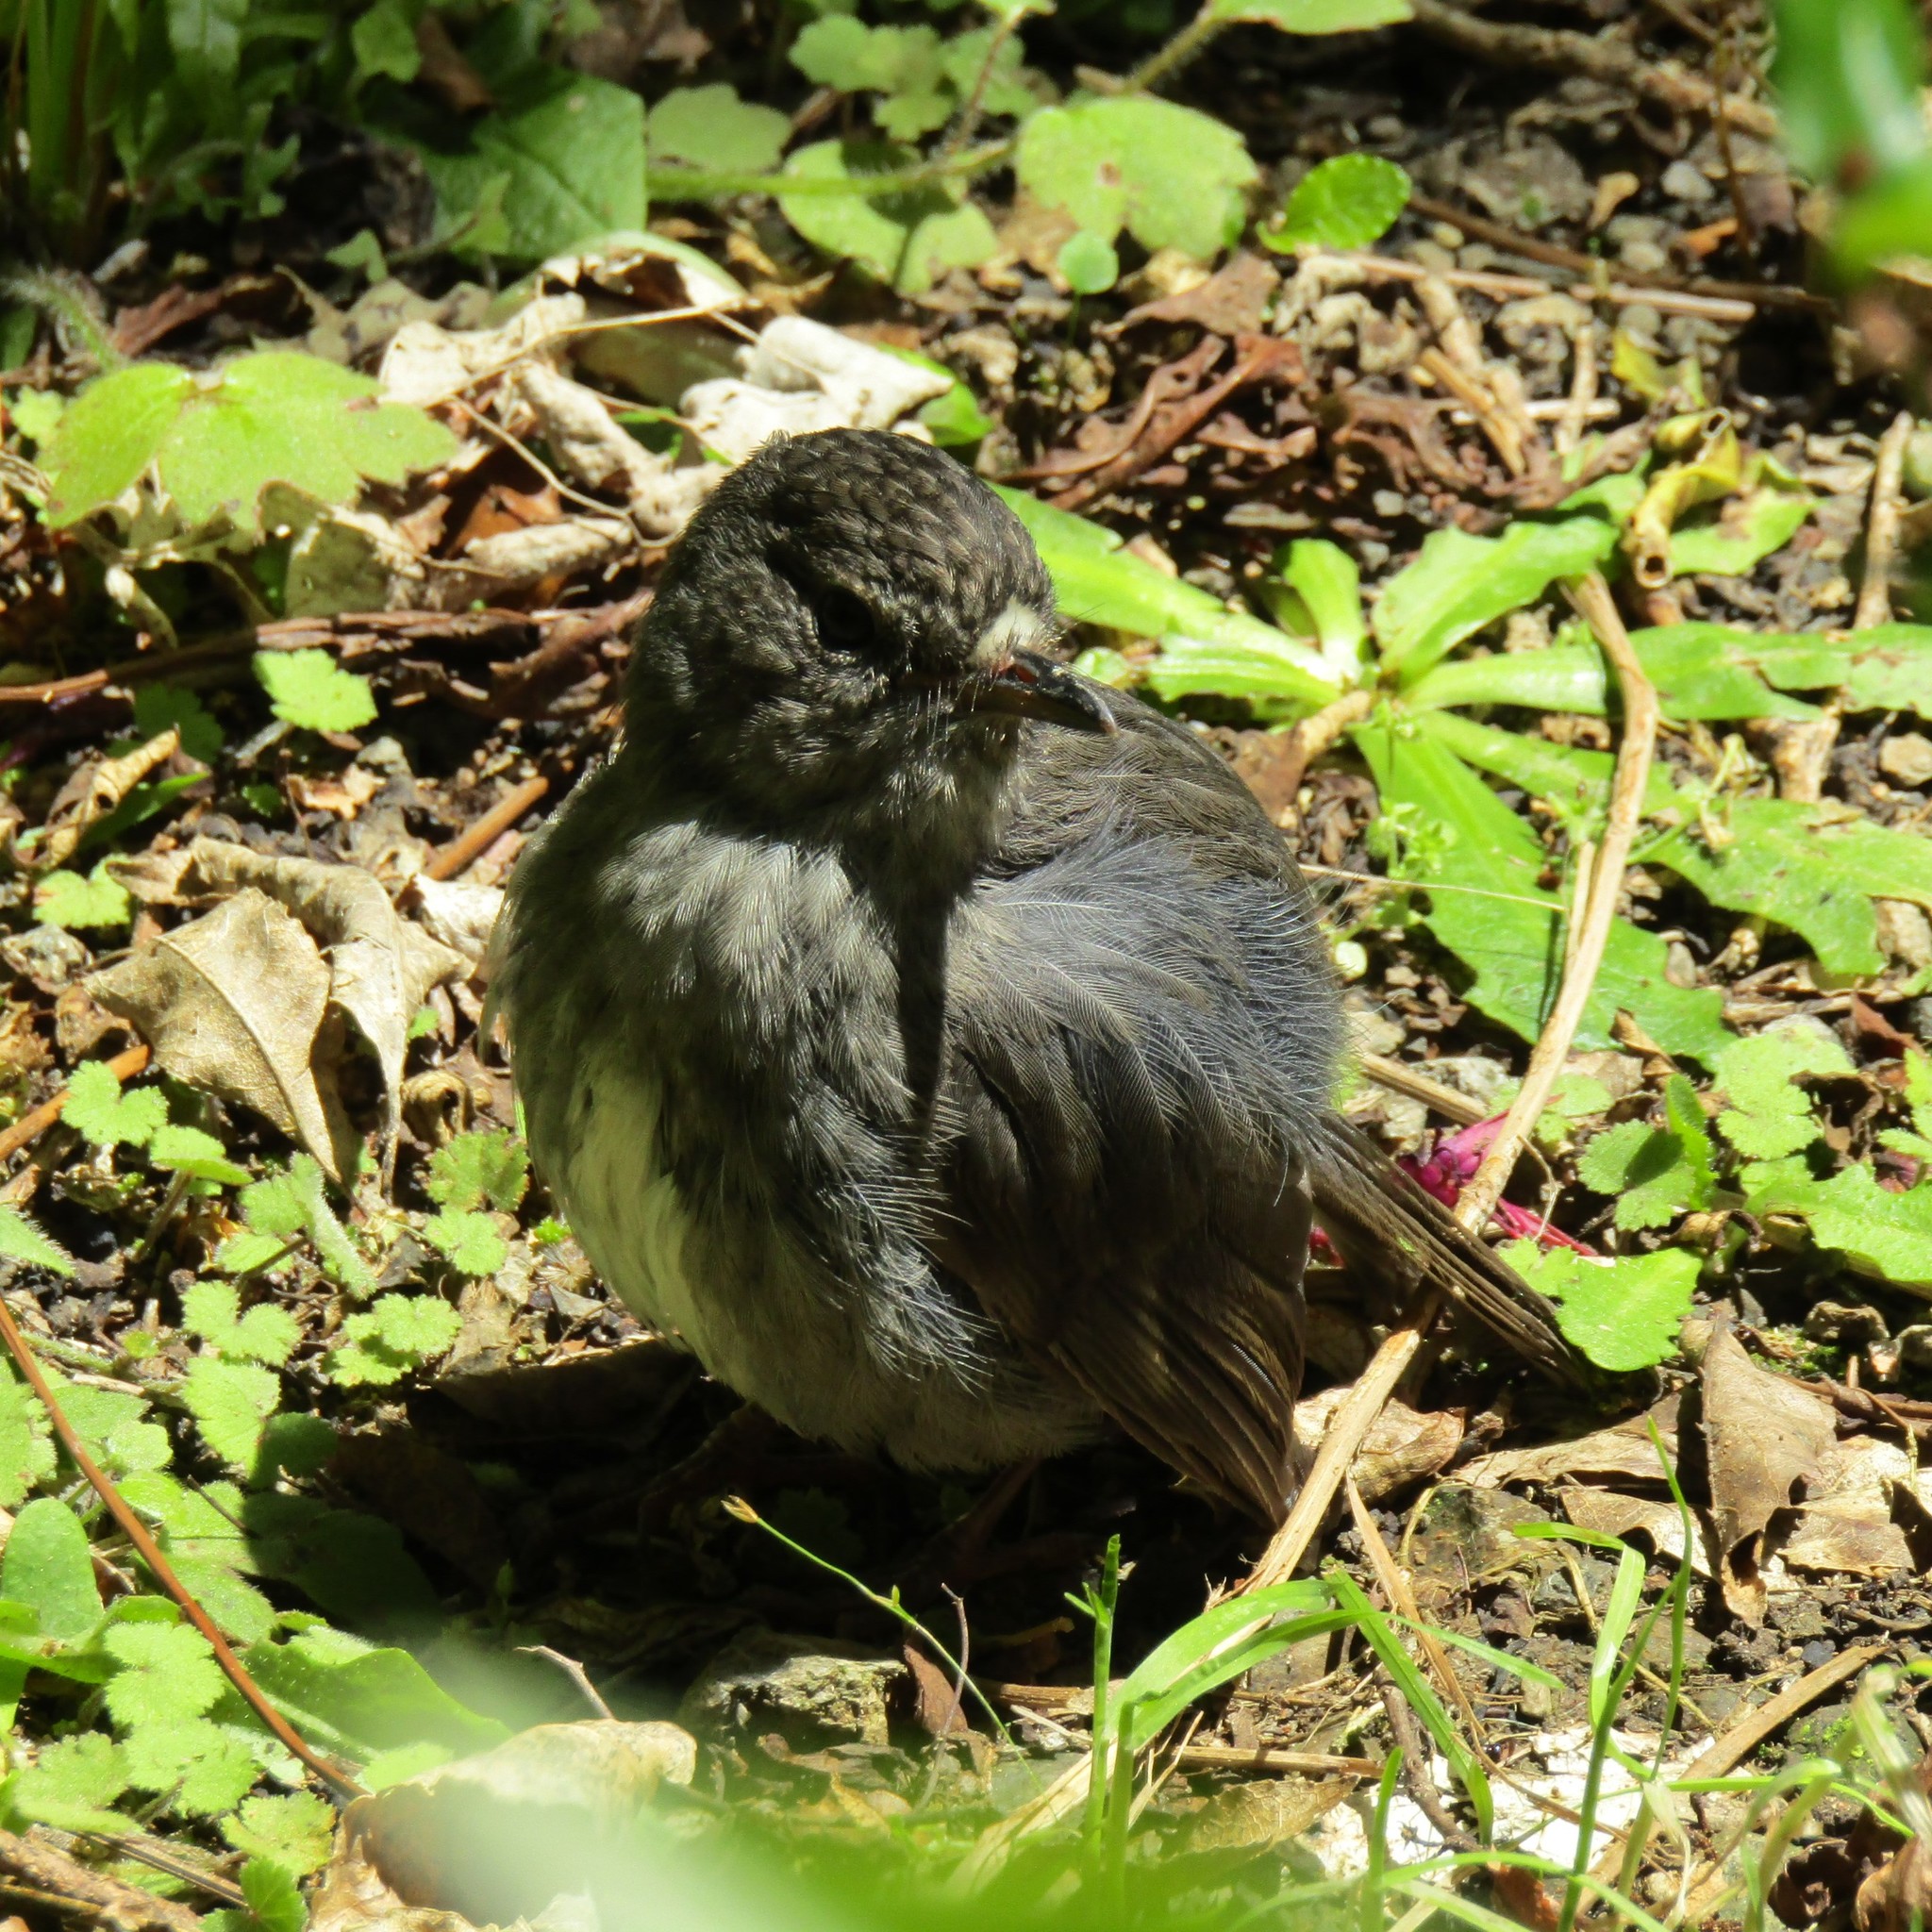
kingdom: Animalia
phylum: Chordata
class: Aves
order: Passeriformes
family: Petroicidae
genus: Petroica
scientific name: Petroica australis
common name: New zealand robin
